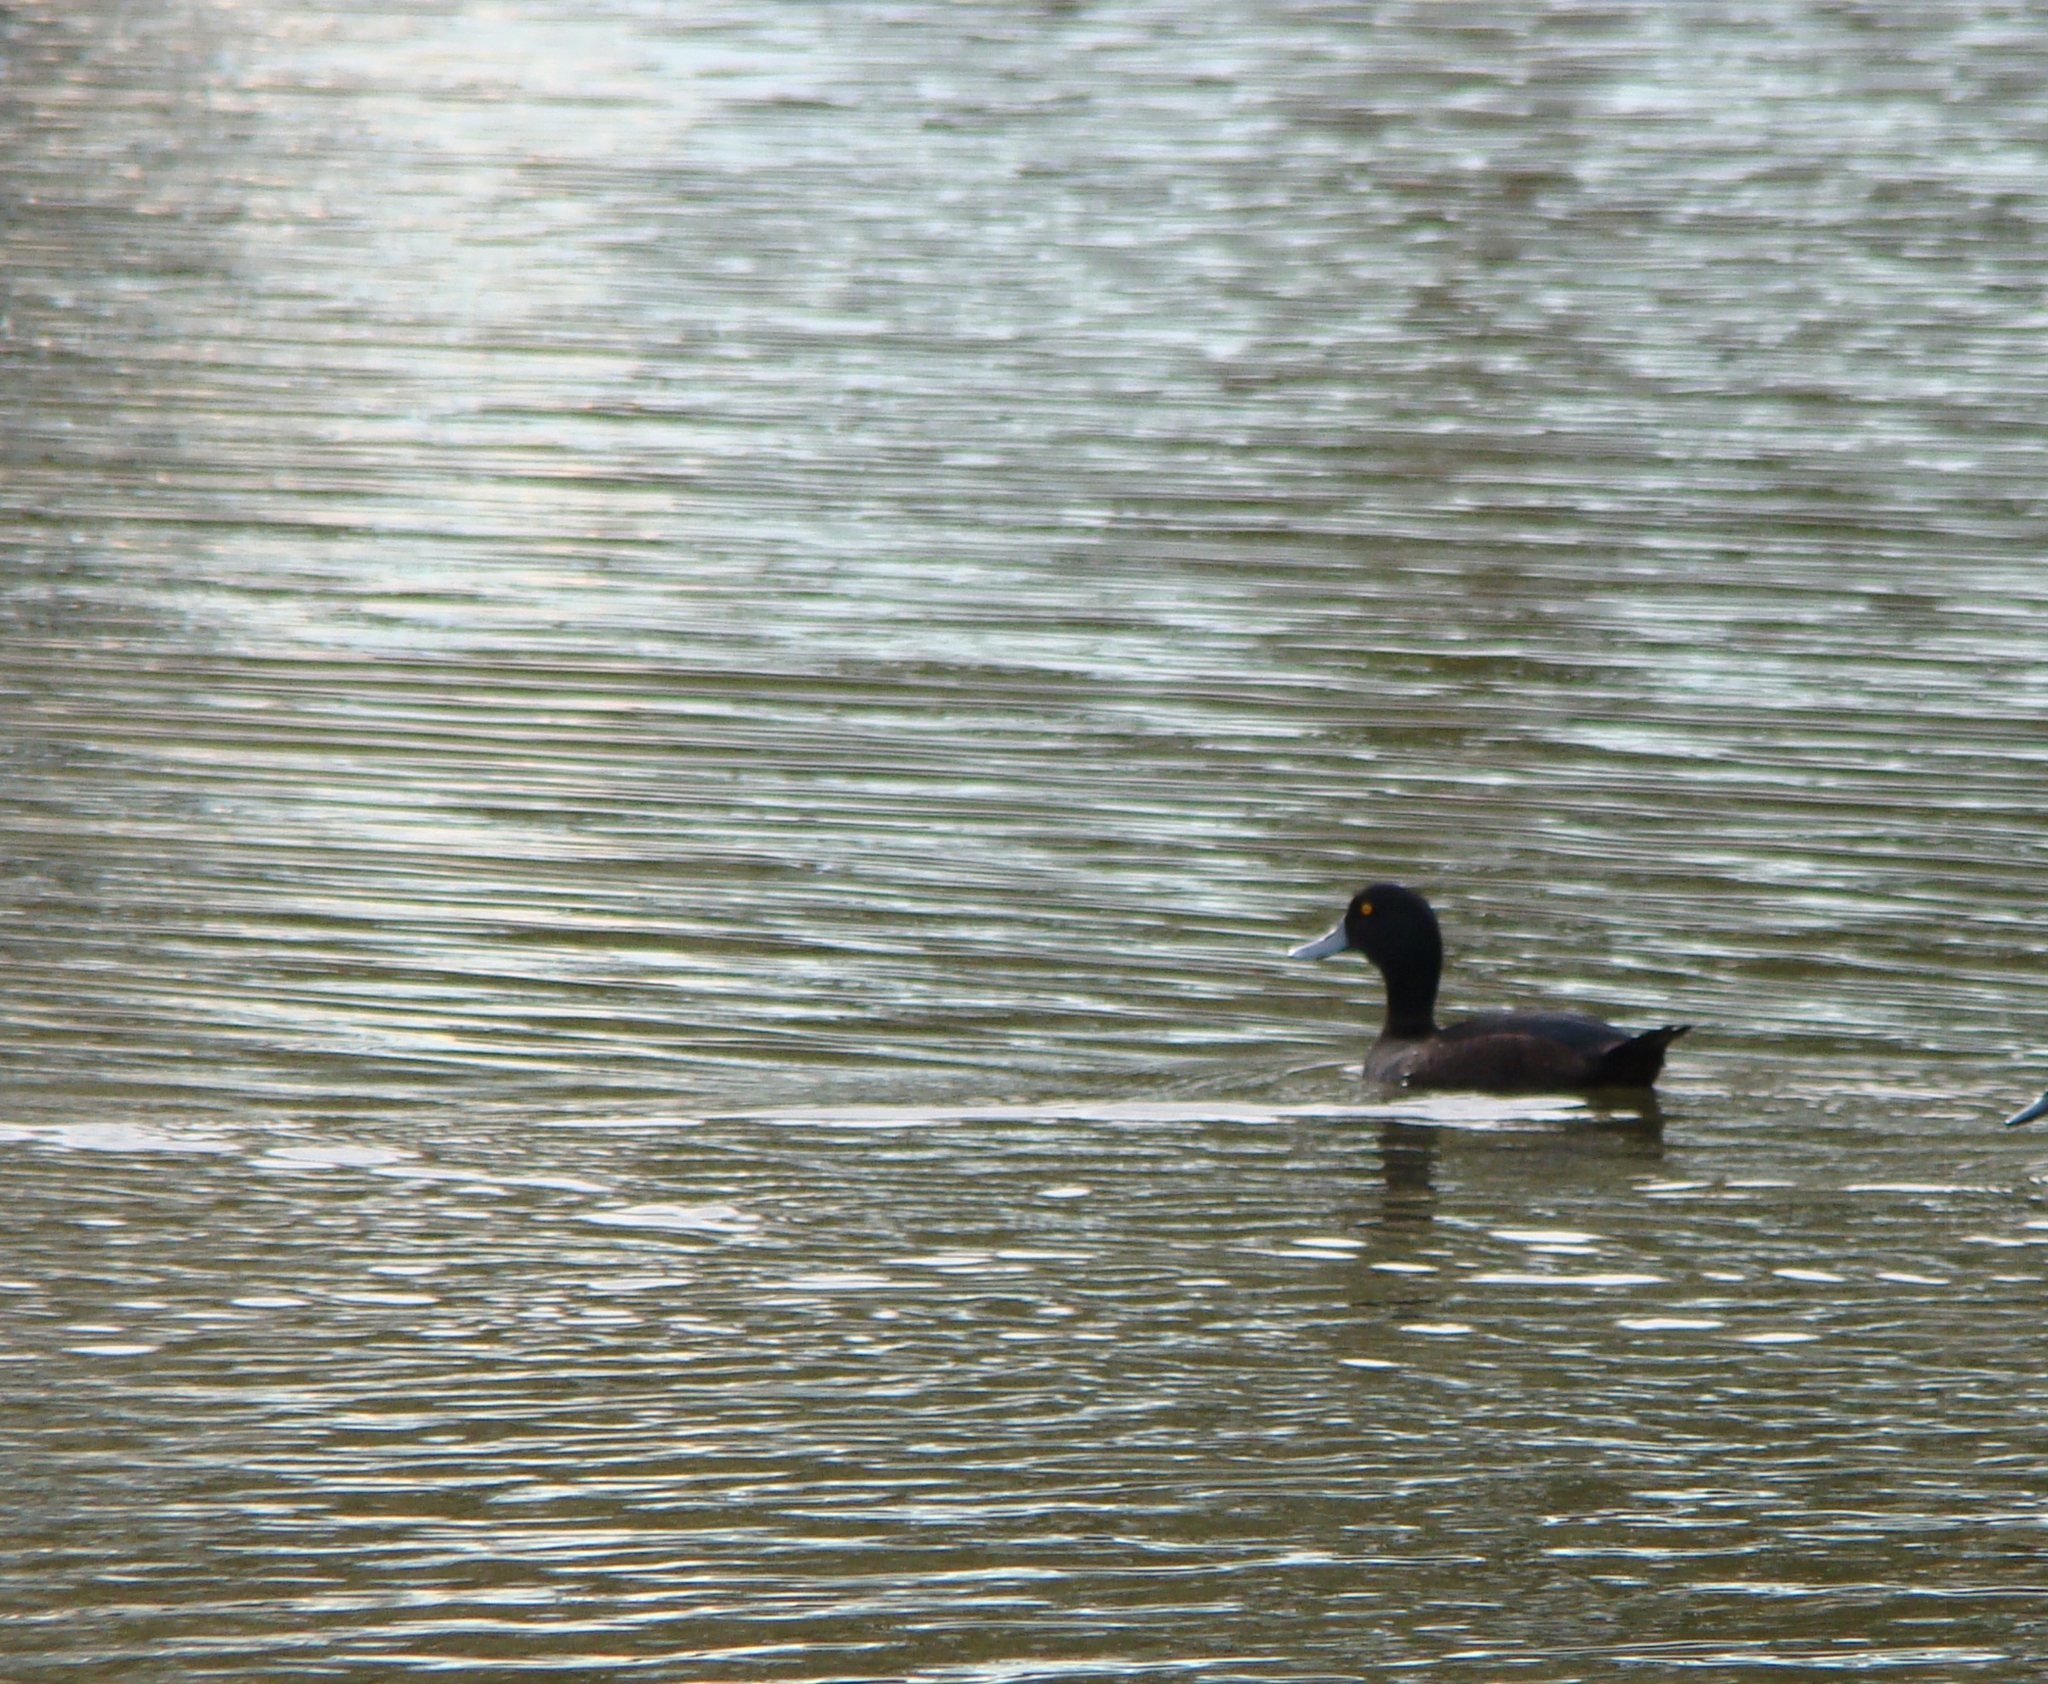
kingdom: Animalia
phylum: Chordata
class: Aves
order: Anseriformes
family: Anatidae
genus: Aythya
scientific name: Aythya novaeseelandiae
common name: New zealand scaup
